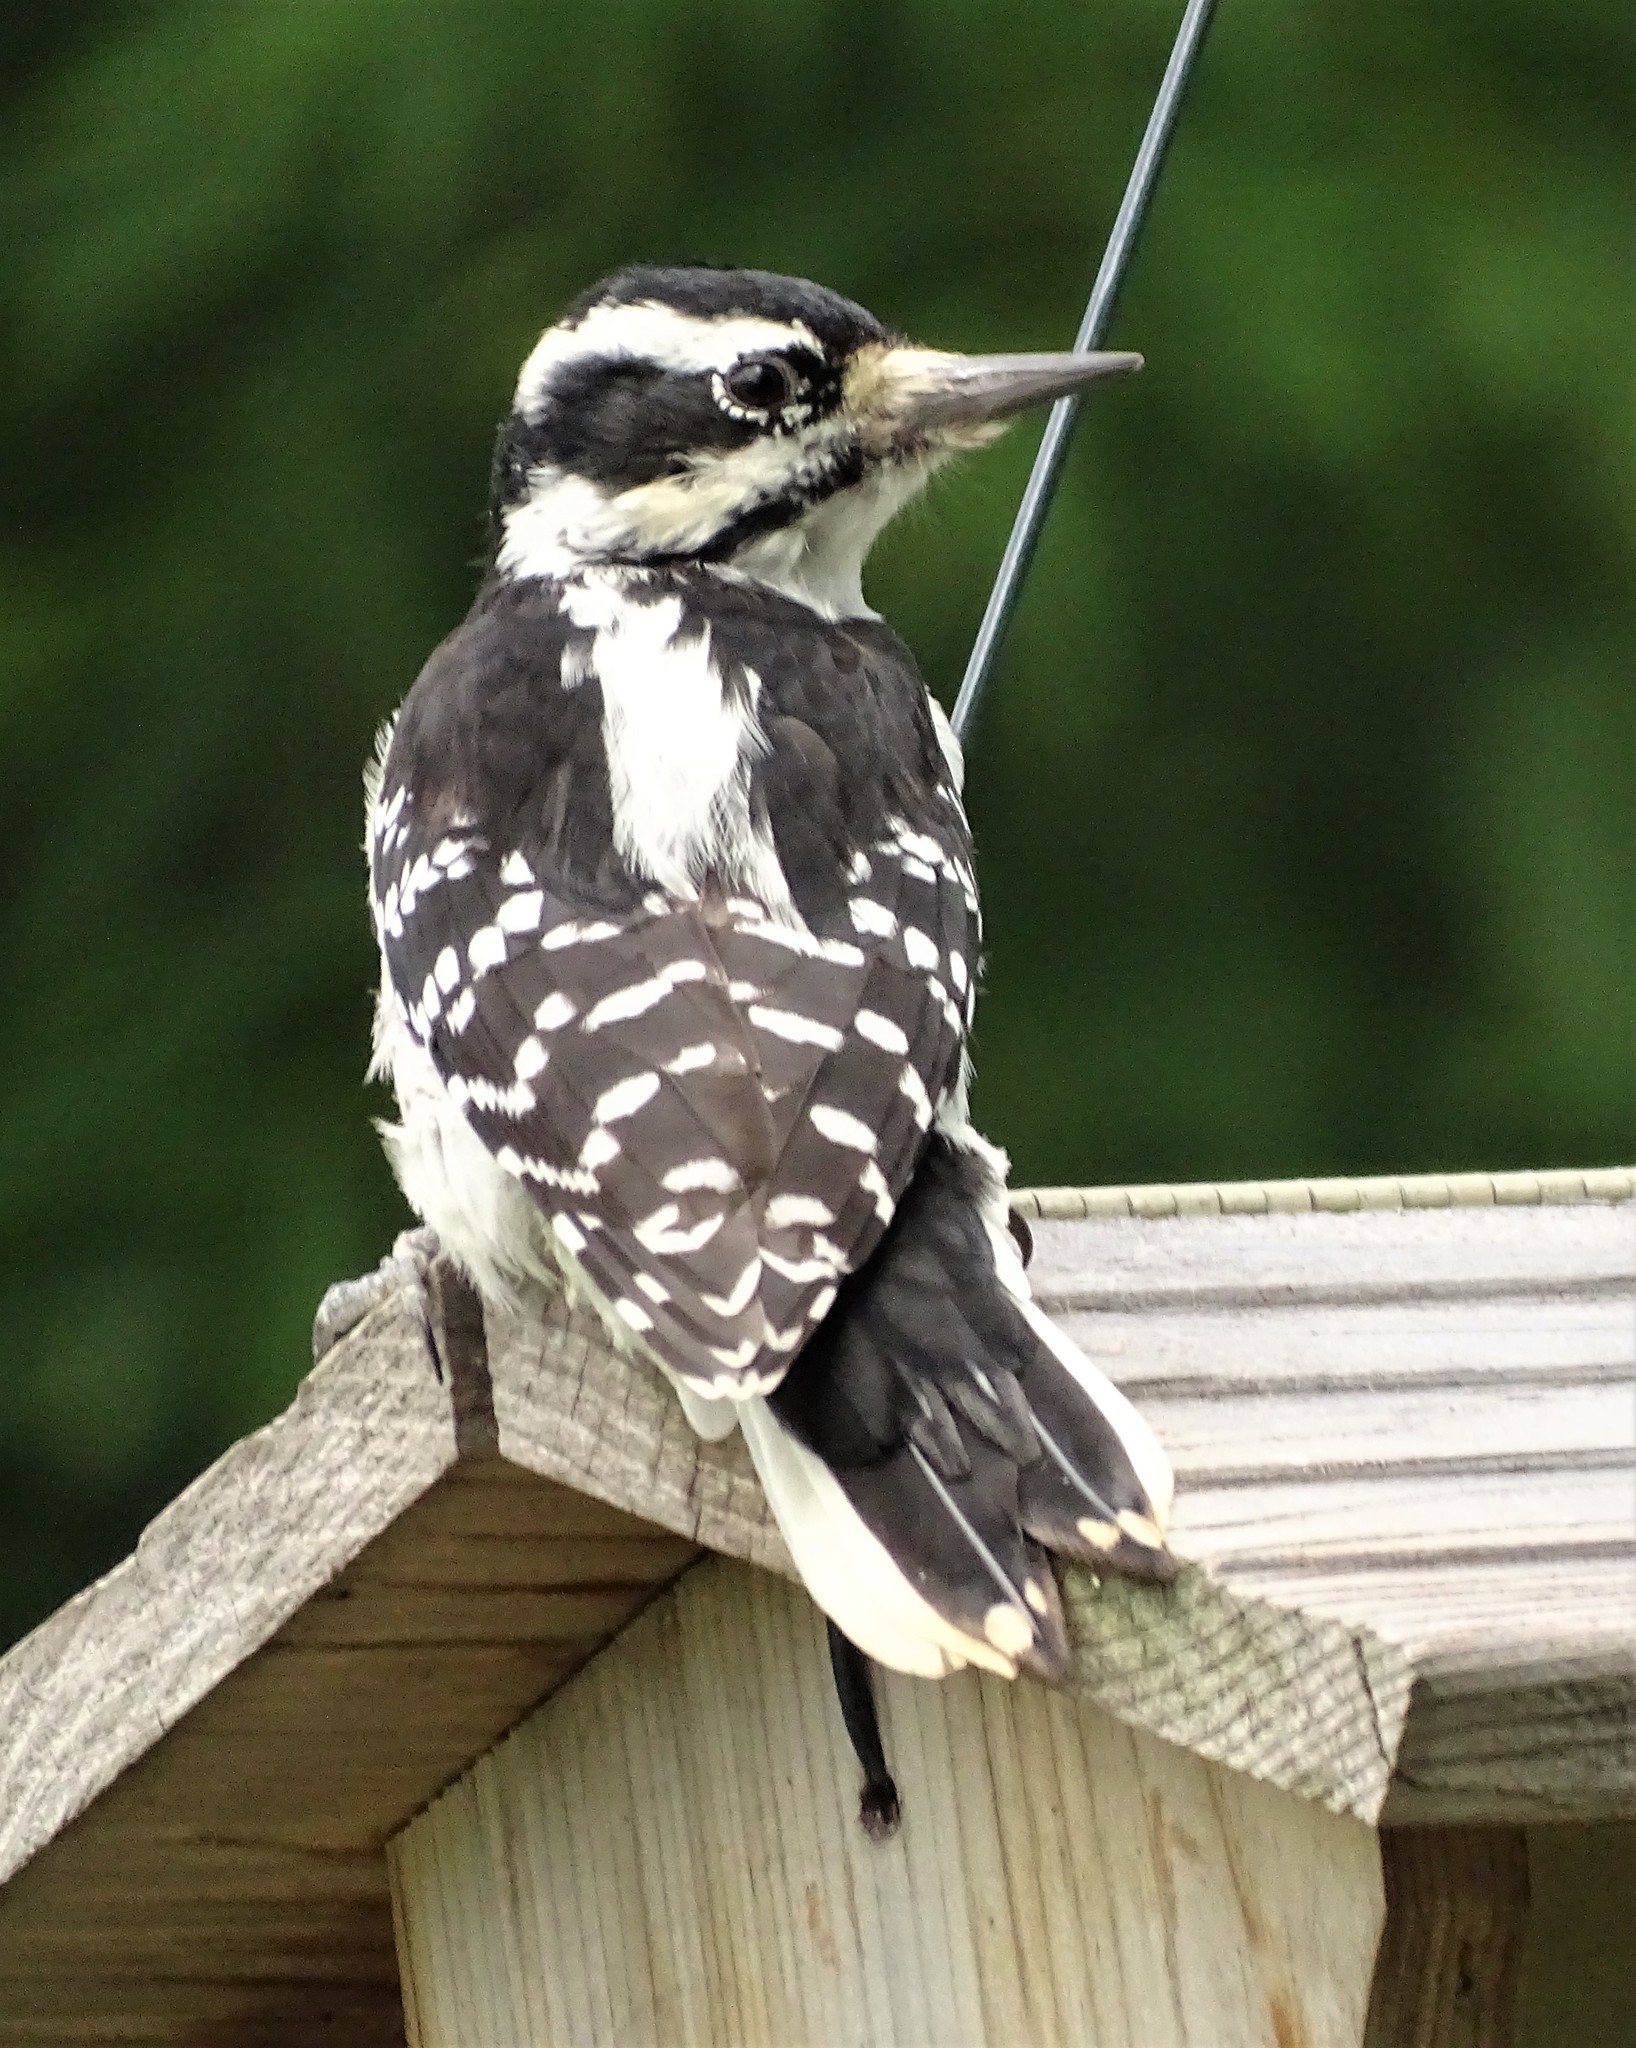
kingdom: Animalia
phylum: Chordata
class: Aves
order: Piciformes
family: Picidae
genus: Leuconotopicus
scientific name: Leuconotopicus villosus
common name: Hairy woodpecker
